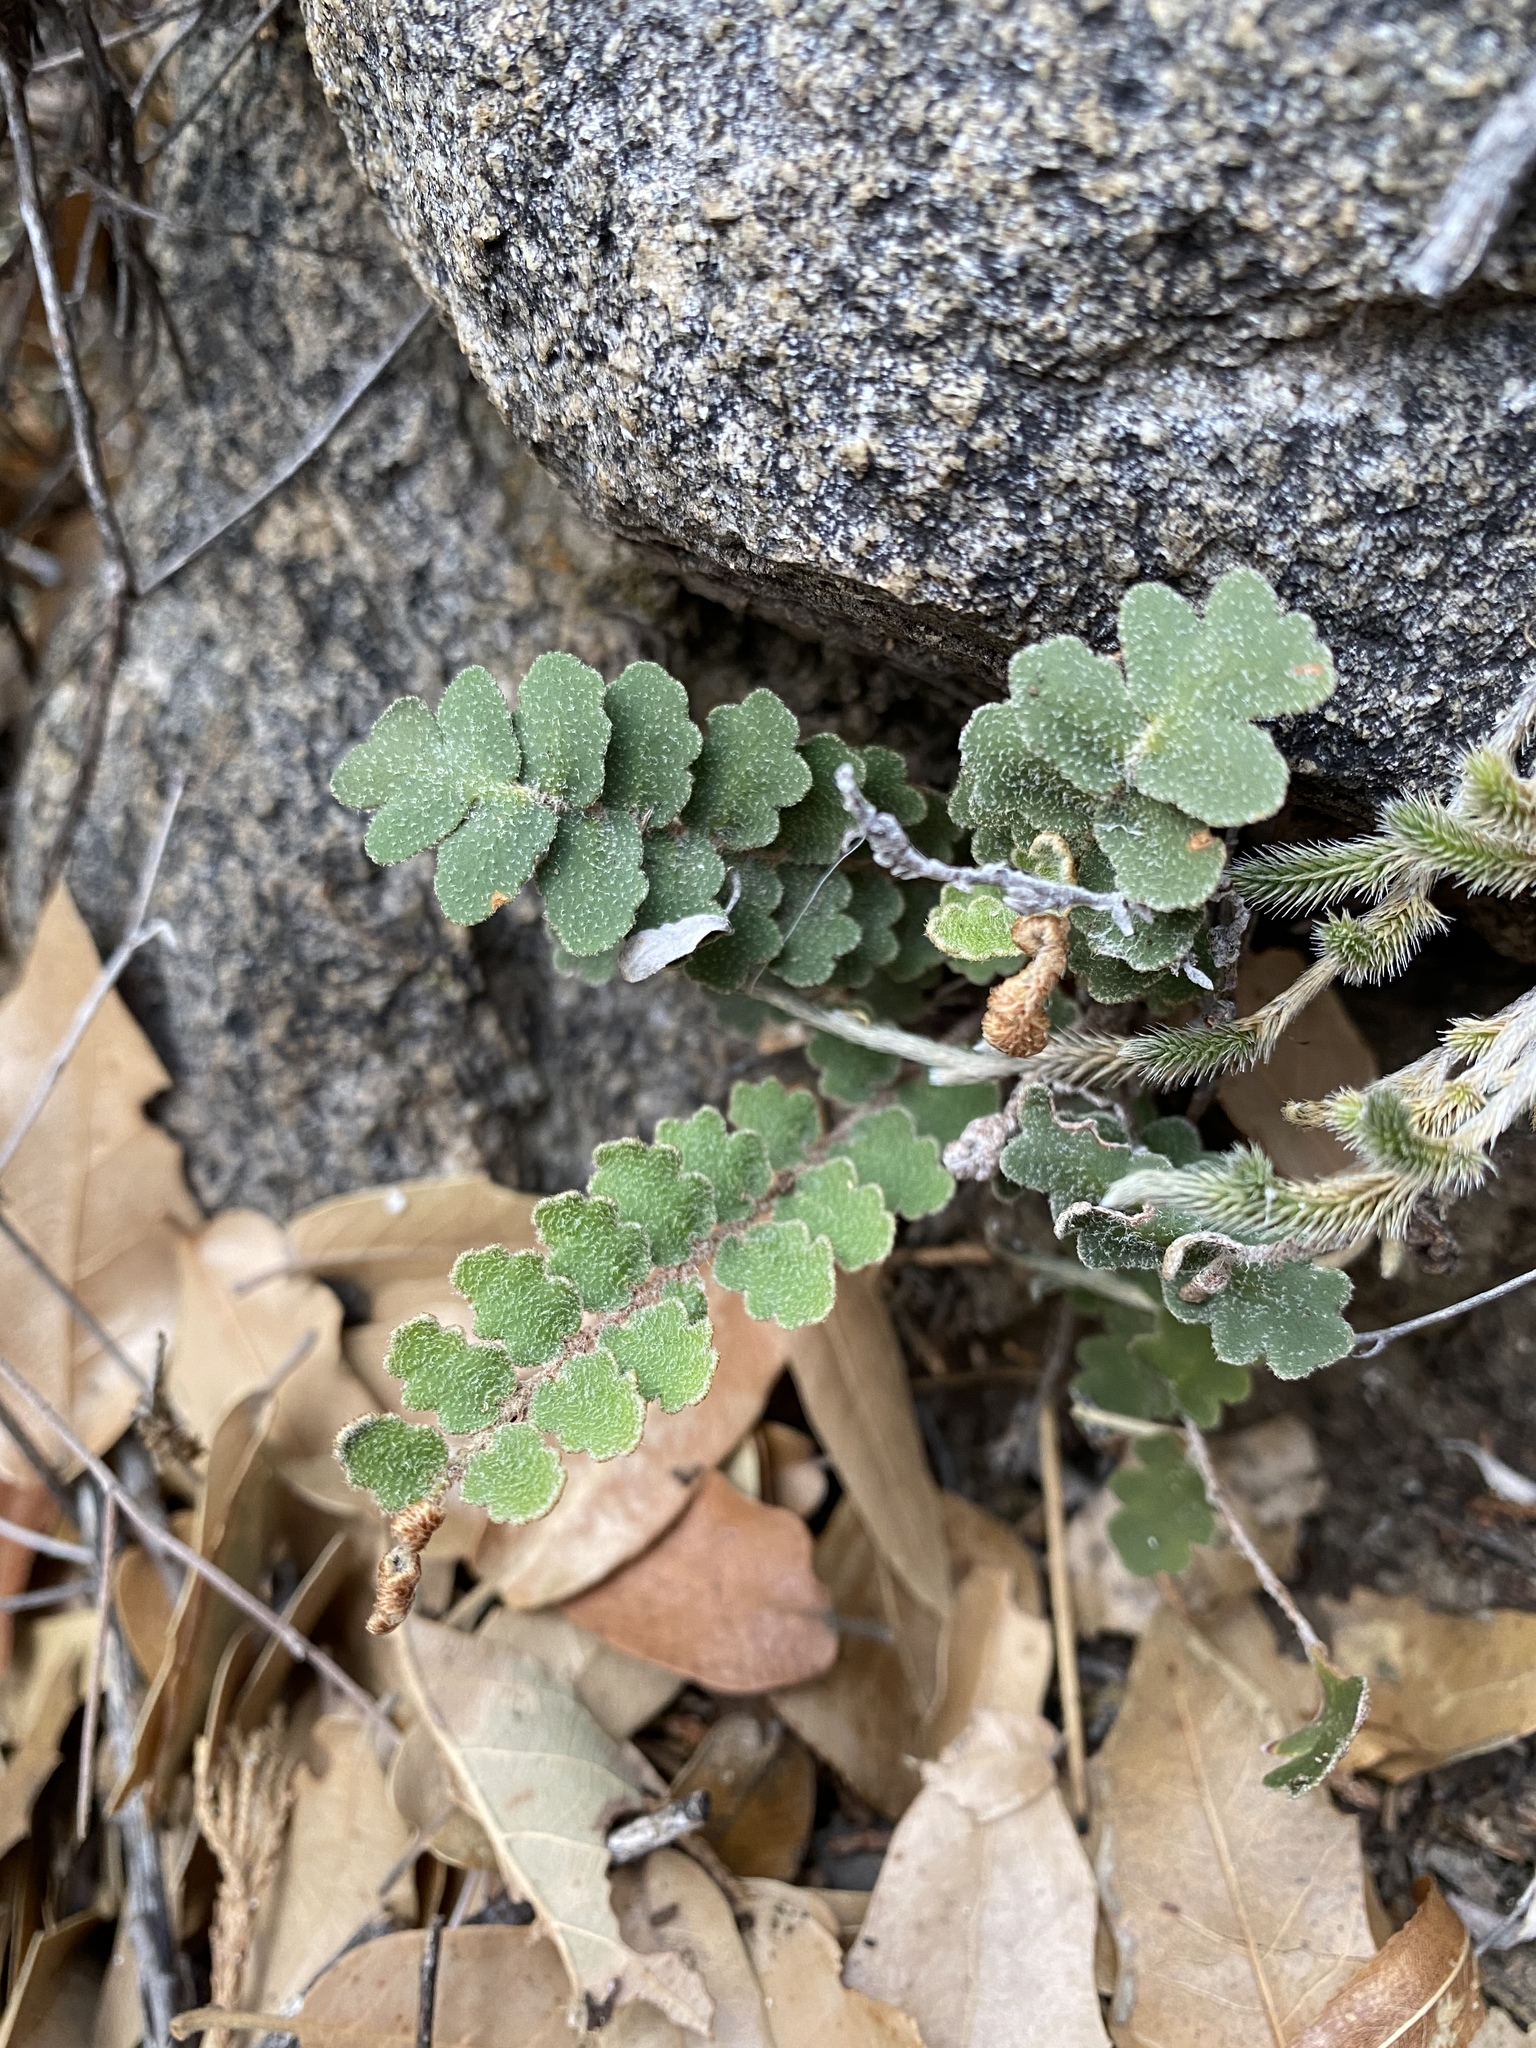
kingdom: Plantae
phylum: Tracheophyta
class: Polypodiopsida
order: Polypodiales
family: Pteridaceae
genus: Astrolepis
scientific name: Astrolepis sinuata
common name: Wavy scaly cloakfern
